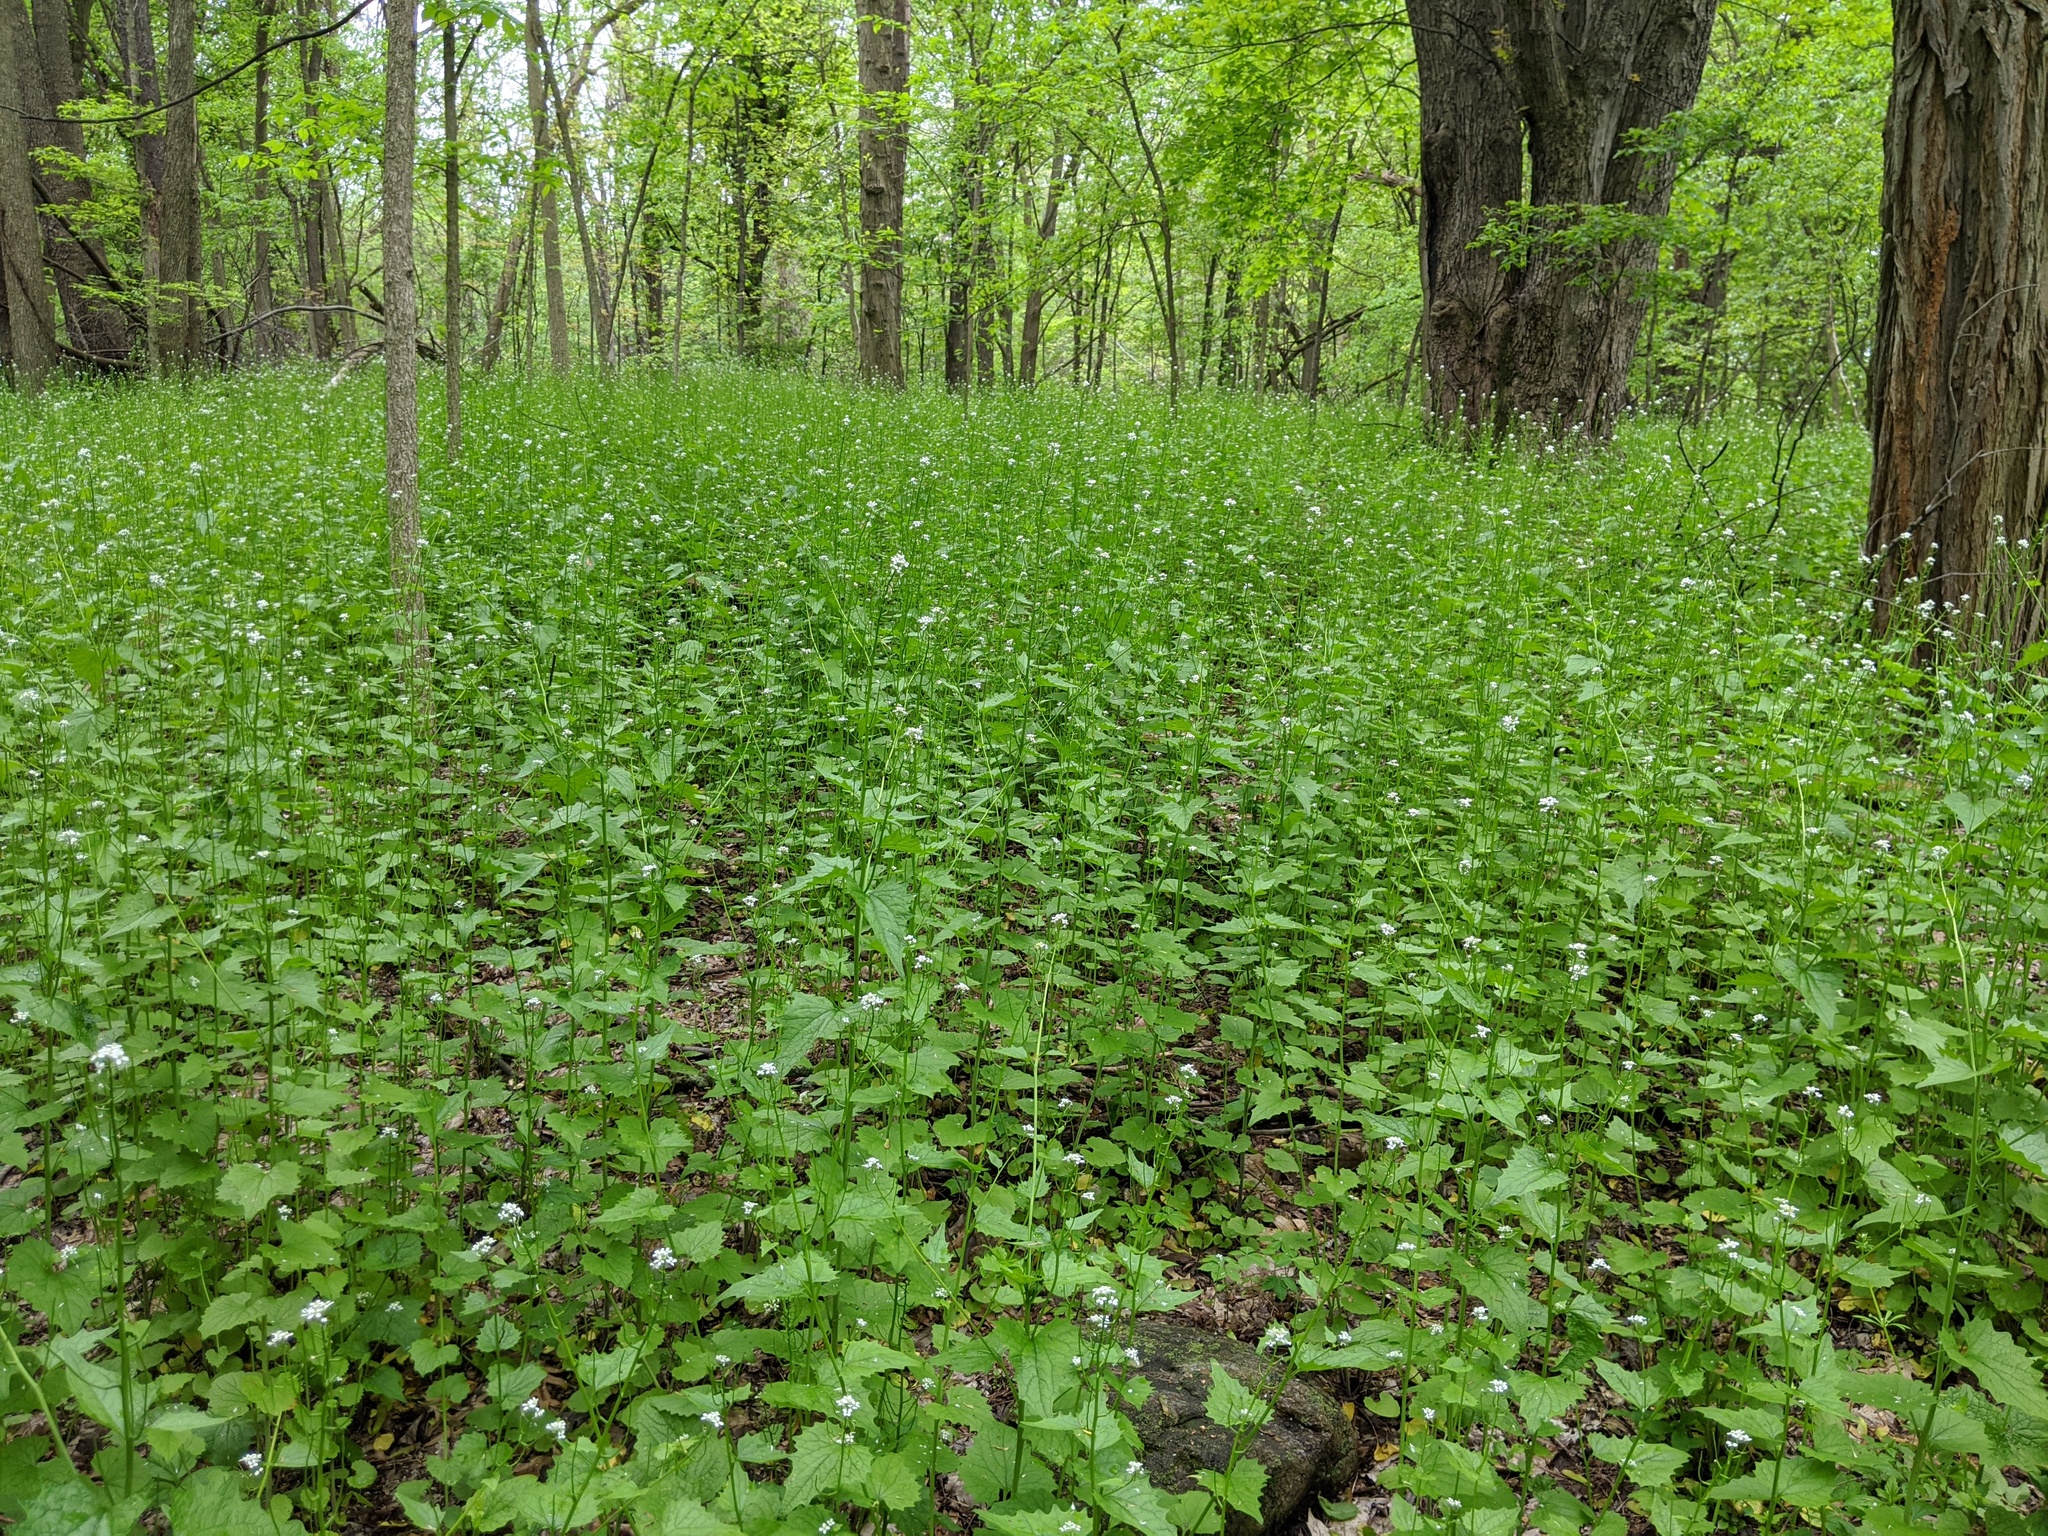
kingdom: Plantae
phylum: Tracheophyta
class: Magnoliopsida
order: Brassicales
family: Brassicaceae
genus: Alliaria
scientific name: Alliaria petiolata
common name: Garlic mustard
